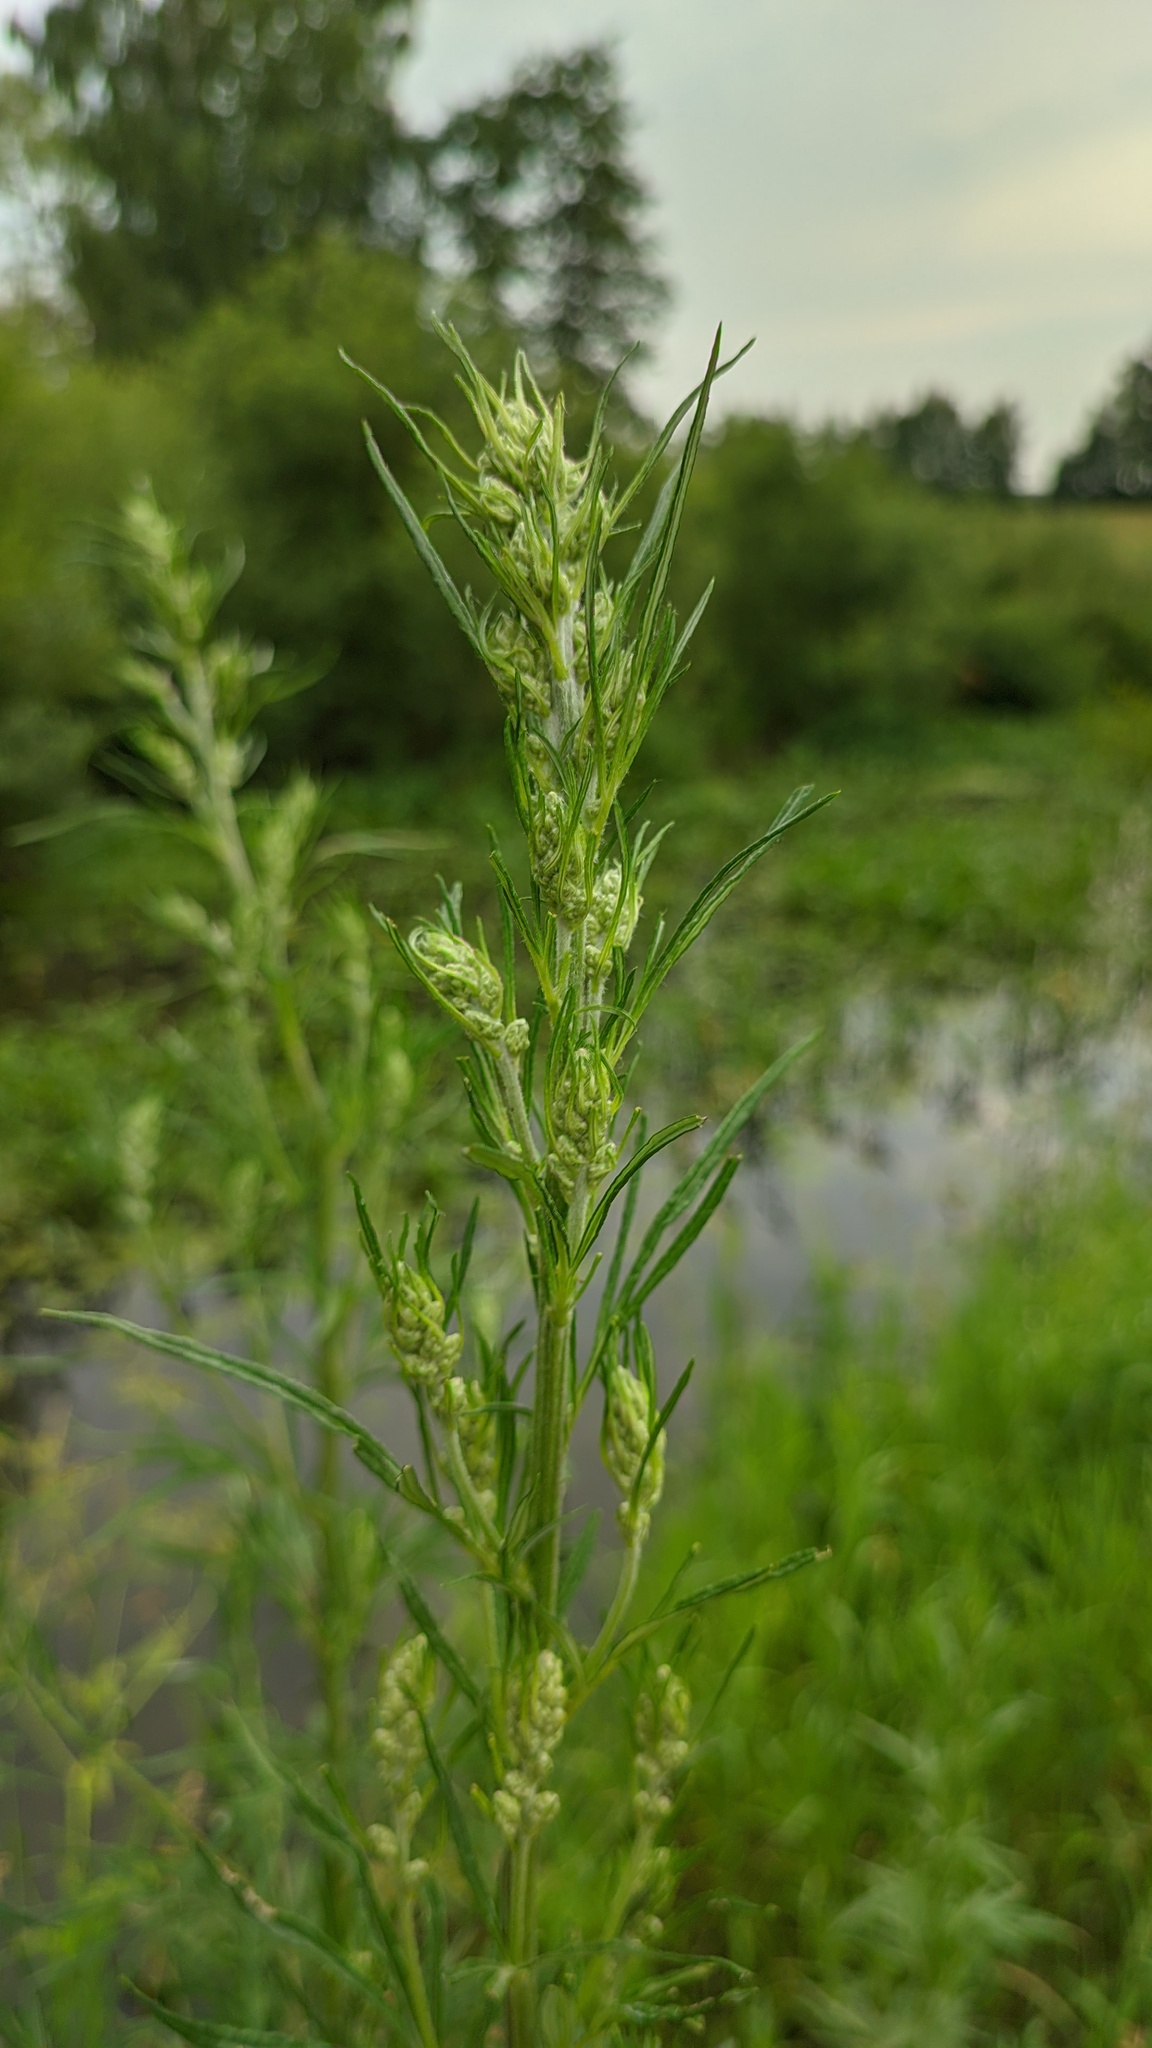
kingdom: Plantae
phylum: Tracheophyta
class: Magnoliopsida
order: Asterales
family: Asteraceae
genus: Artemisia
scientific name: Artemisia vulgaris
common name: Mugwort
